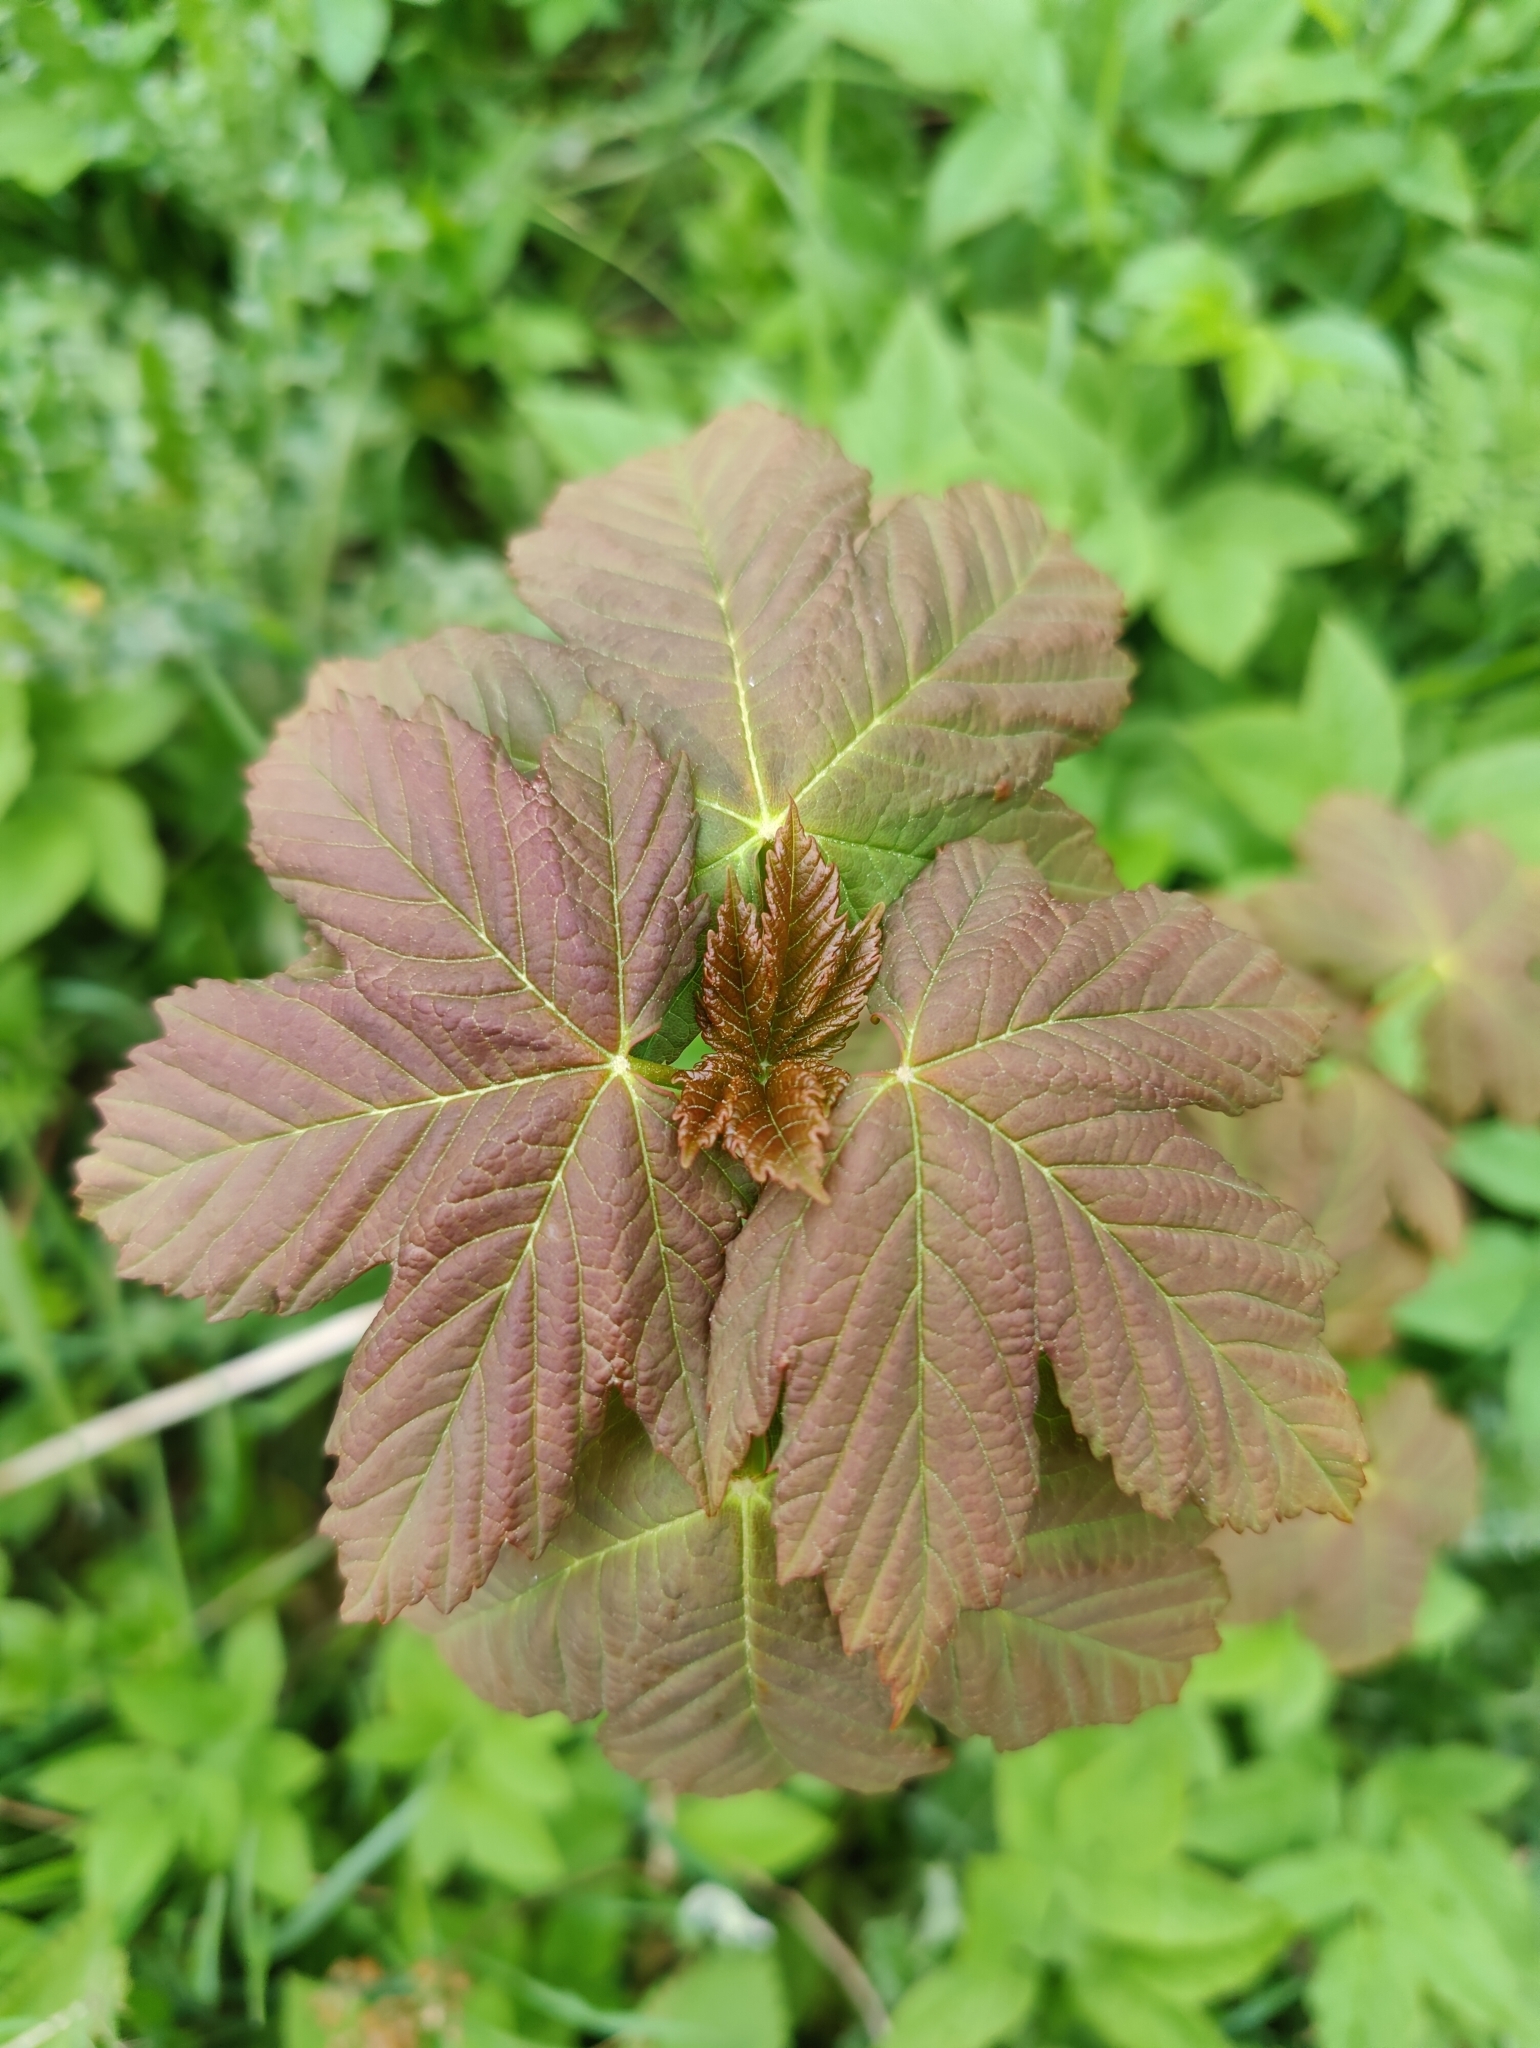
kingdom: Plantae
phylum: Tracheophyta
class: Magnoliopsida
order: Sapindales
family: Sapindaceae
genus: Acer
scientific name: Acer pseudoplatanus
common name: Sycamore
